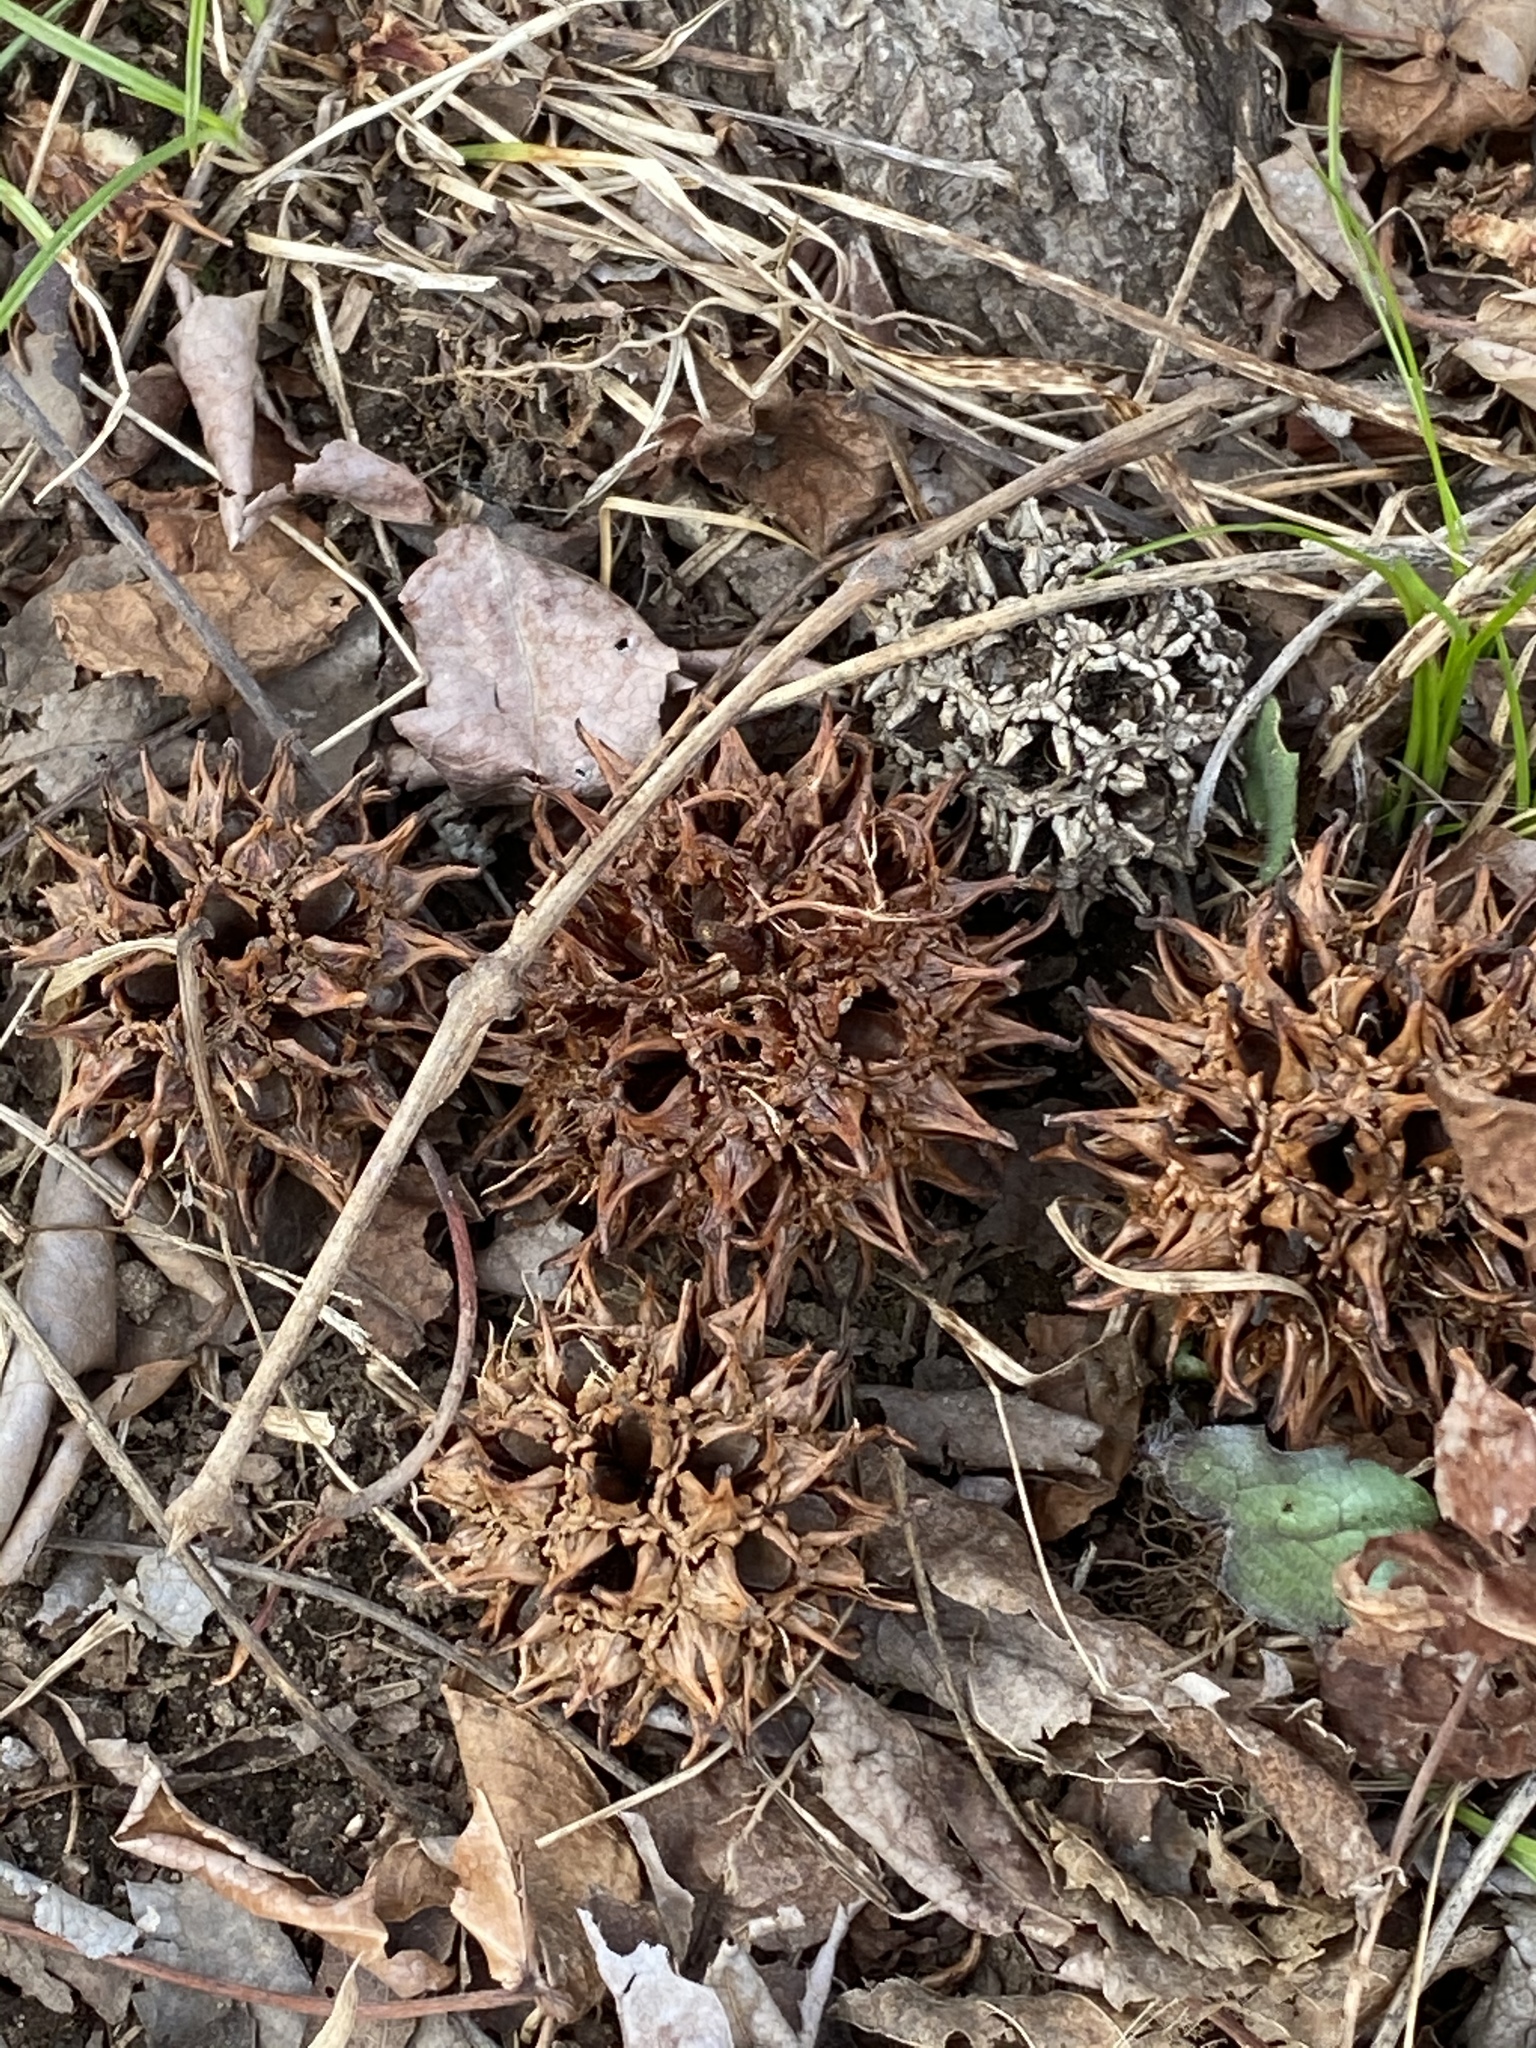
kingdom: Plantae
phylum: Tracheophyta
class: Magnoliopsida
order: Saxifragales
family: Altingiaceae
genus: Liquidambar
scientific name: Liquidambar styraciflua
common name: Sweet gum
